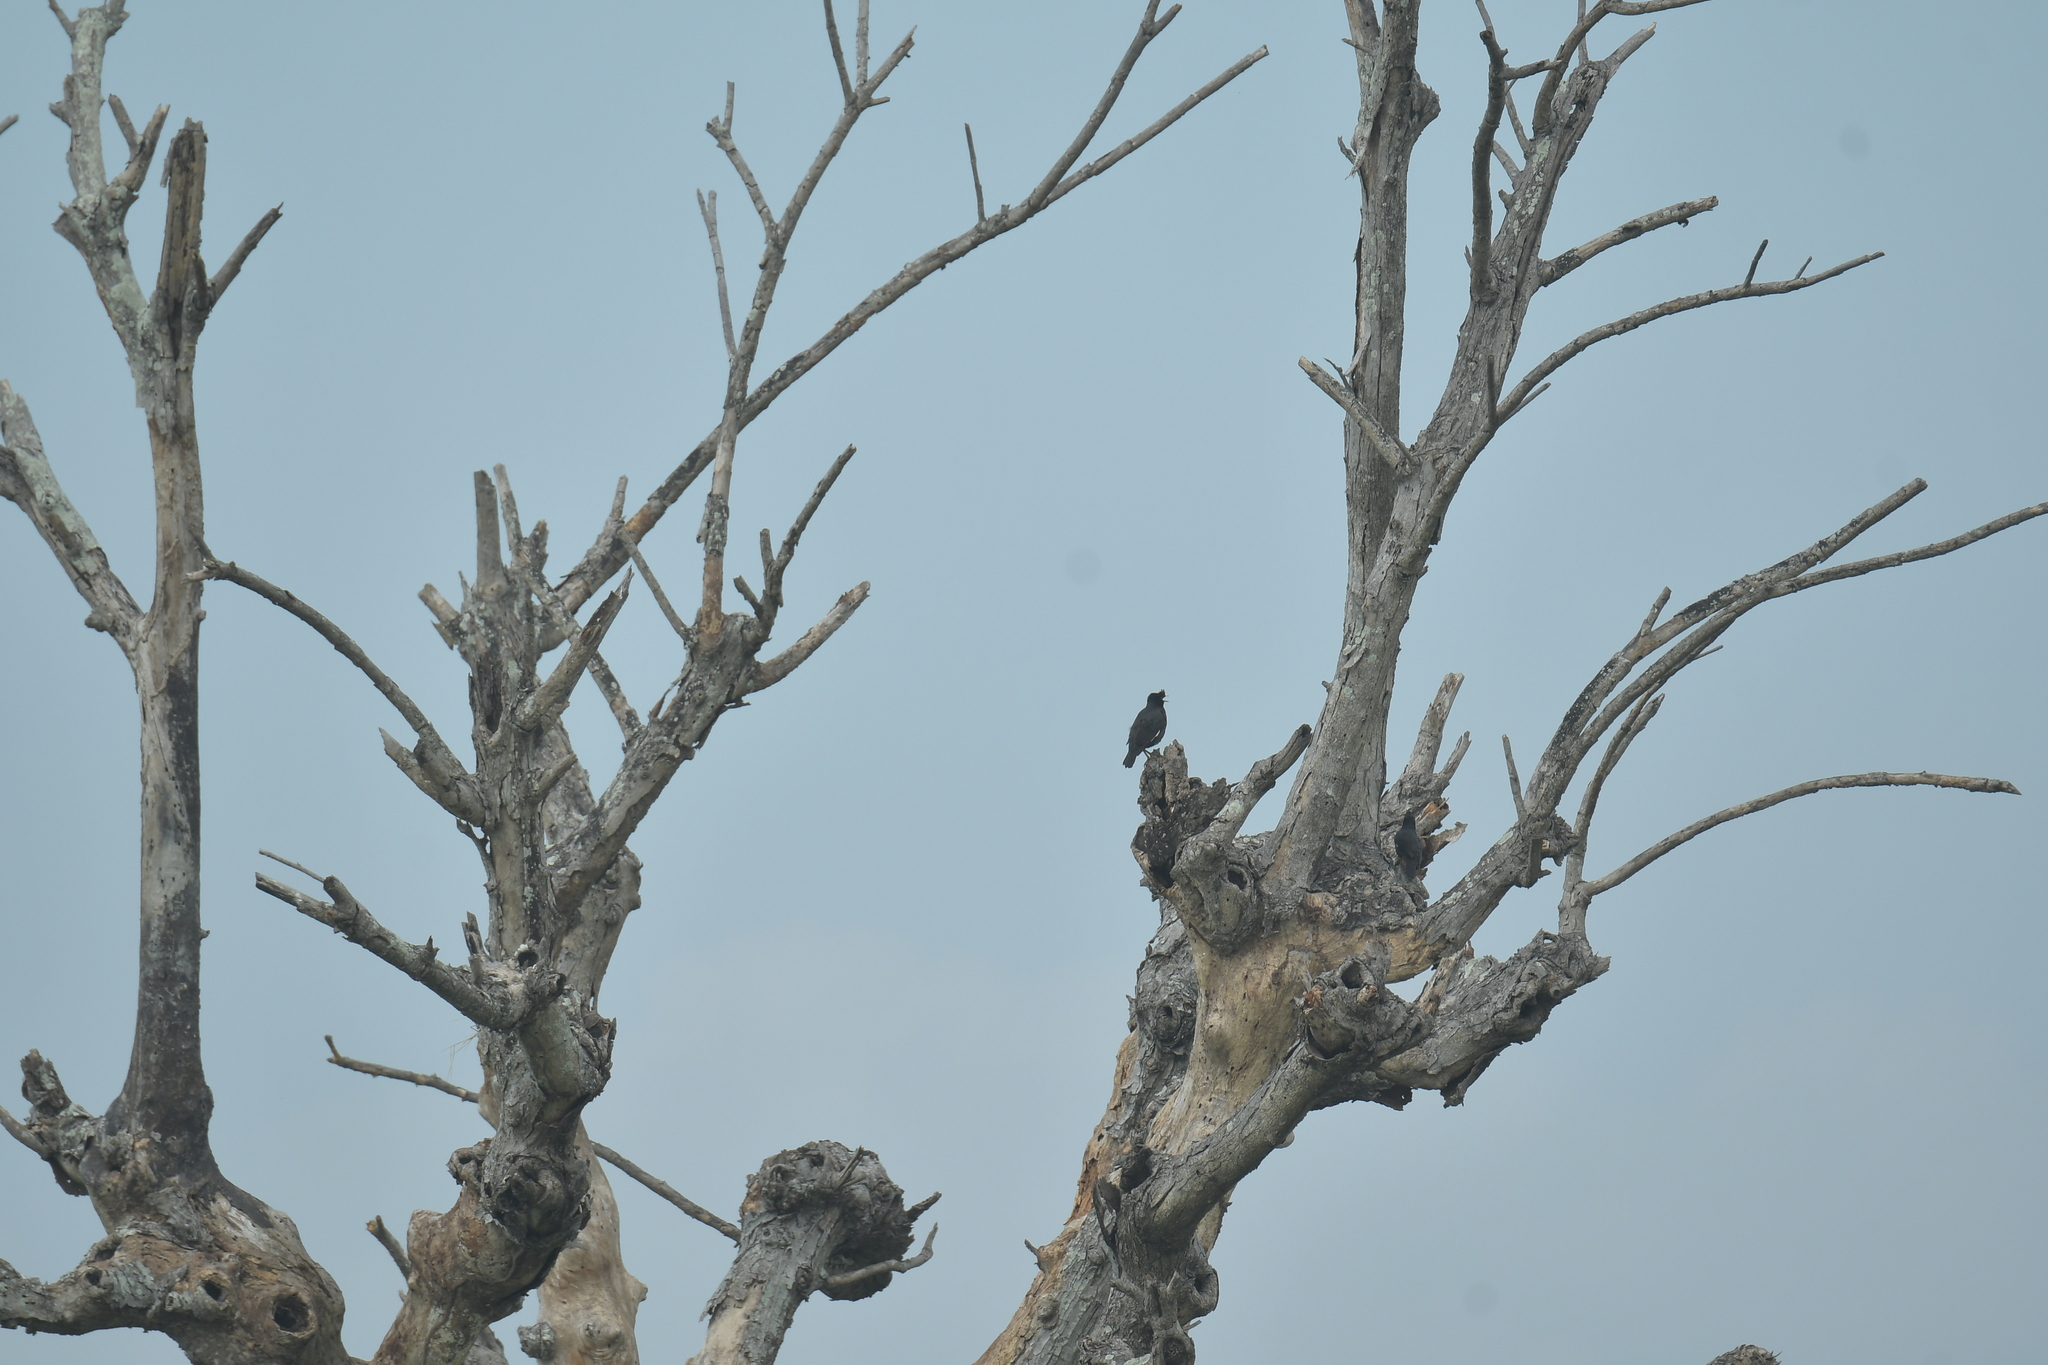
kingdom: Animalia
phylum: Chordata
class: Aves
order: Passeriformes
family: Sturnidae
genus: Acridotheres
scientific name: Acridotheres cristatellus
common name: Crested myna
